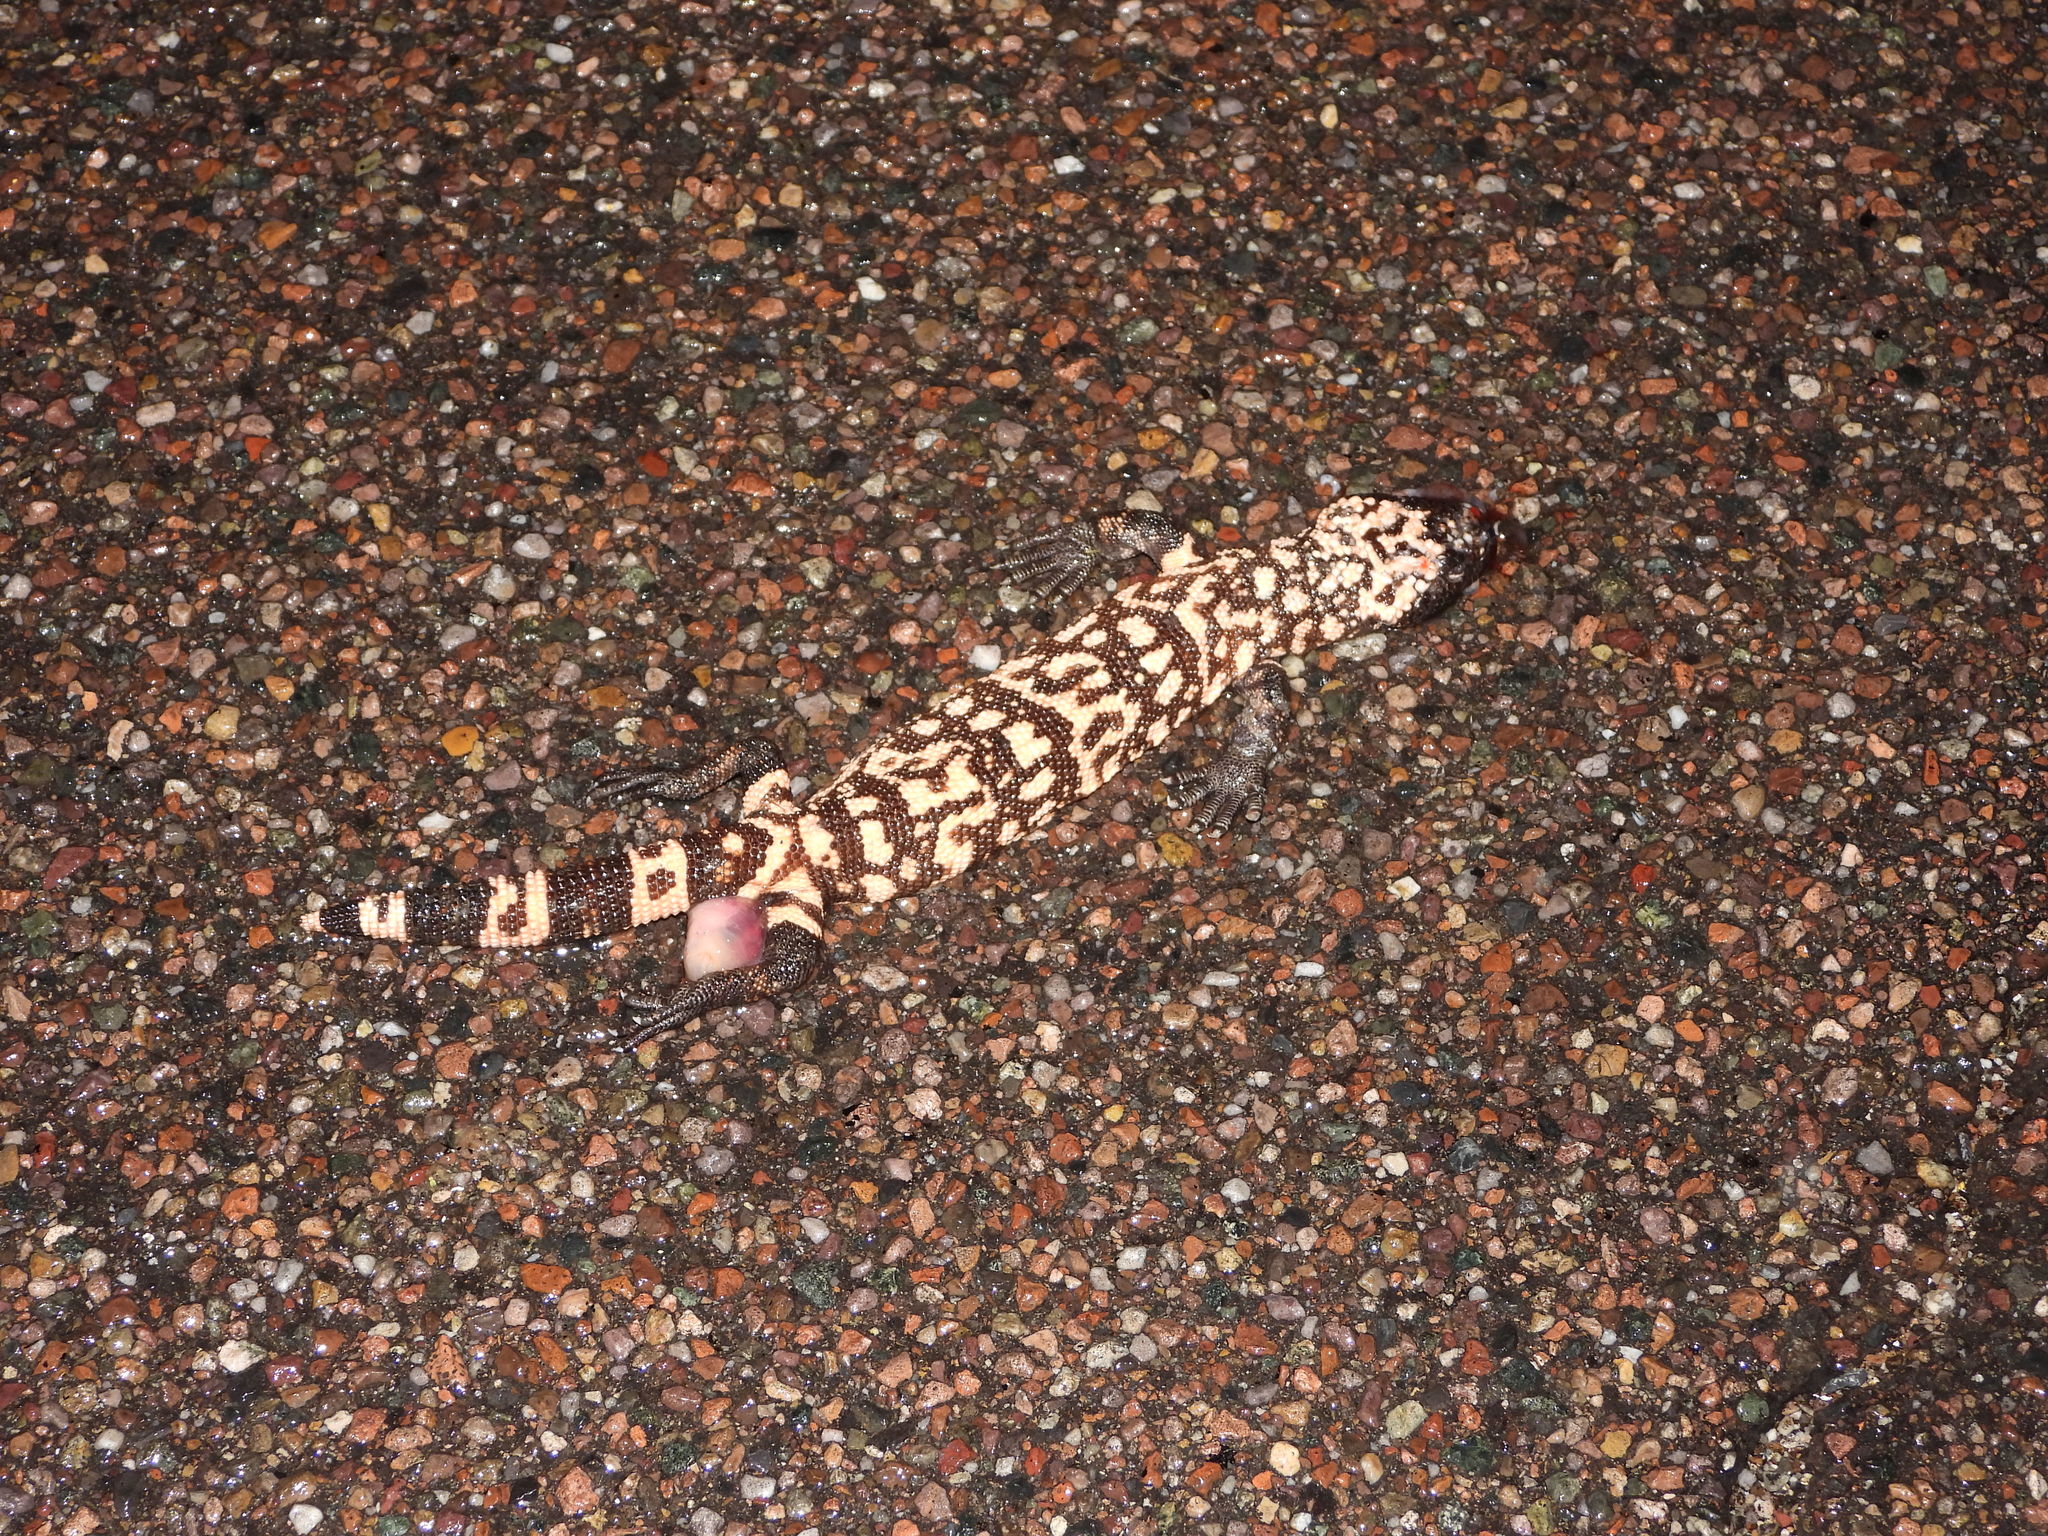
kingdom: Animalia
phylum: Chordata
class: Squamata
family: Helodermatidae
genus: Heloderma
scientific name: Heloderma suspectum
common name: Gila monster
